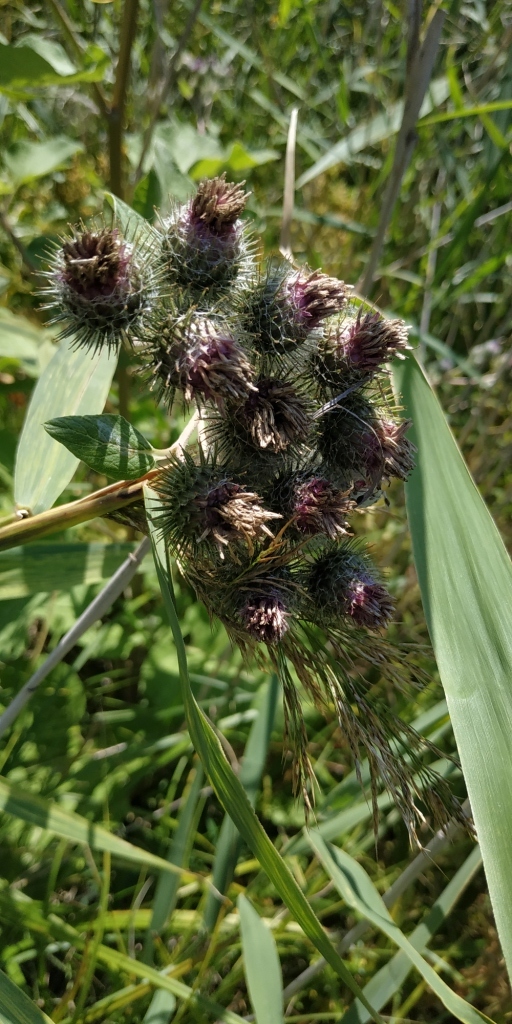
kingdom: Plantae
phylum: Tracheophyta
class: Magnoliopsida
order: Asterales
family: Asteraceae
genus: Arctium
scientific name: Arctium tomentosum
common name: Woolly burdock
